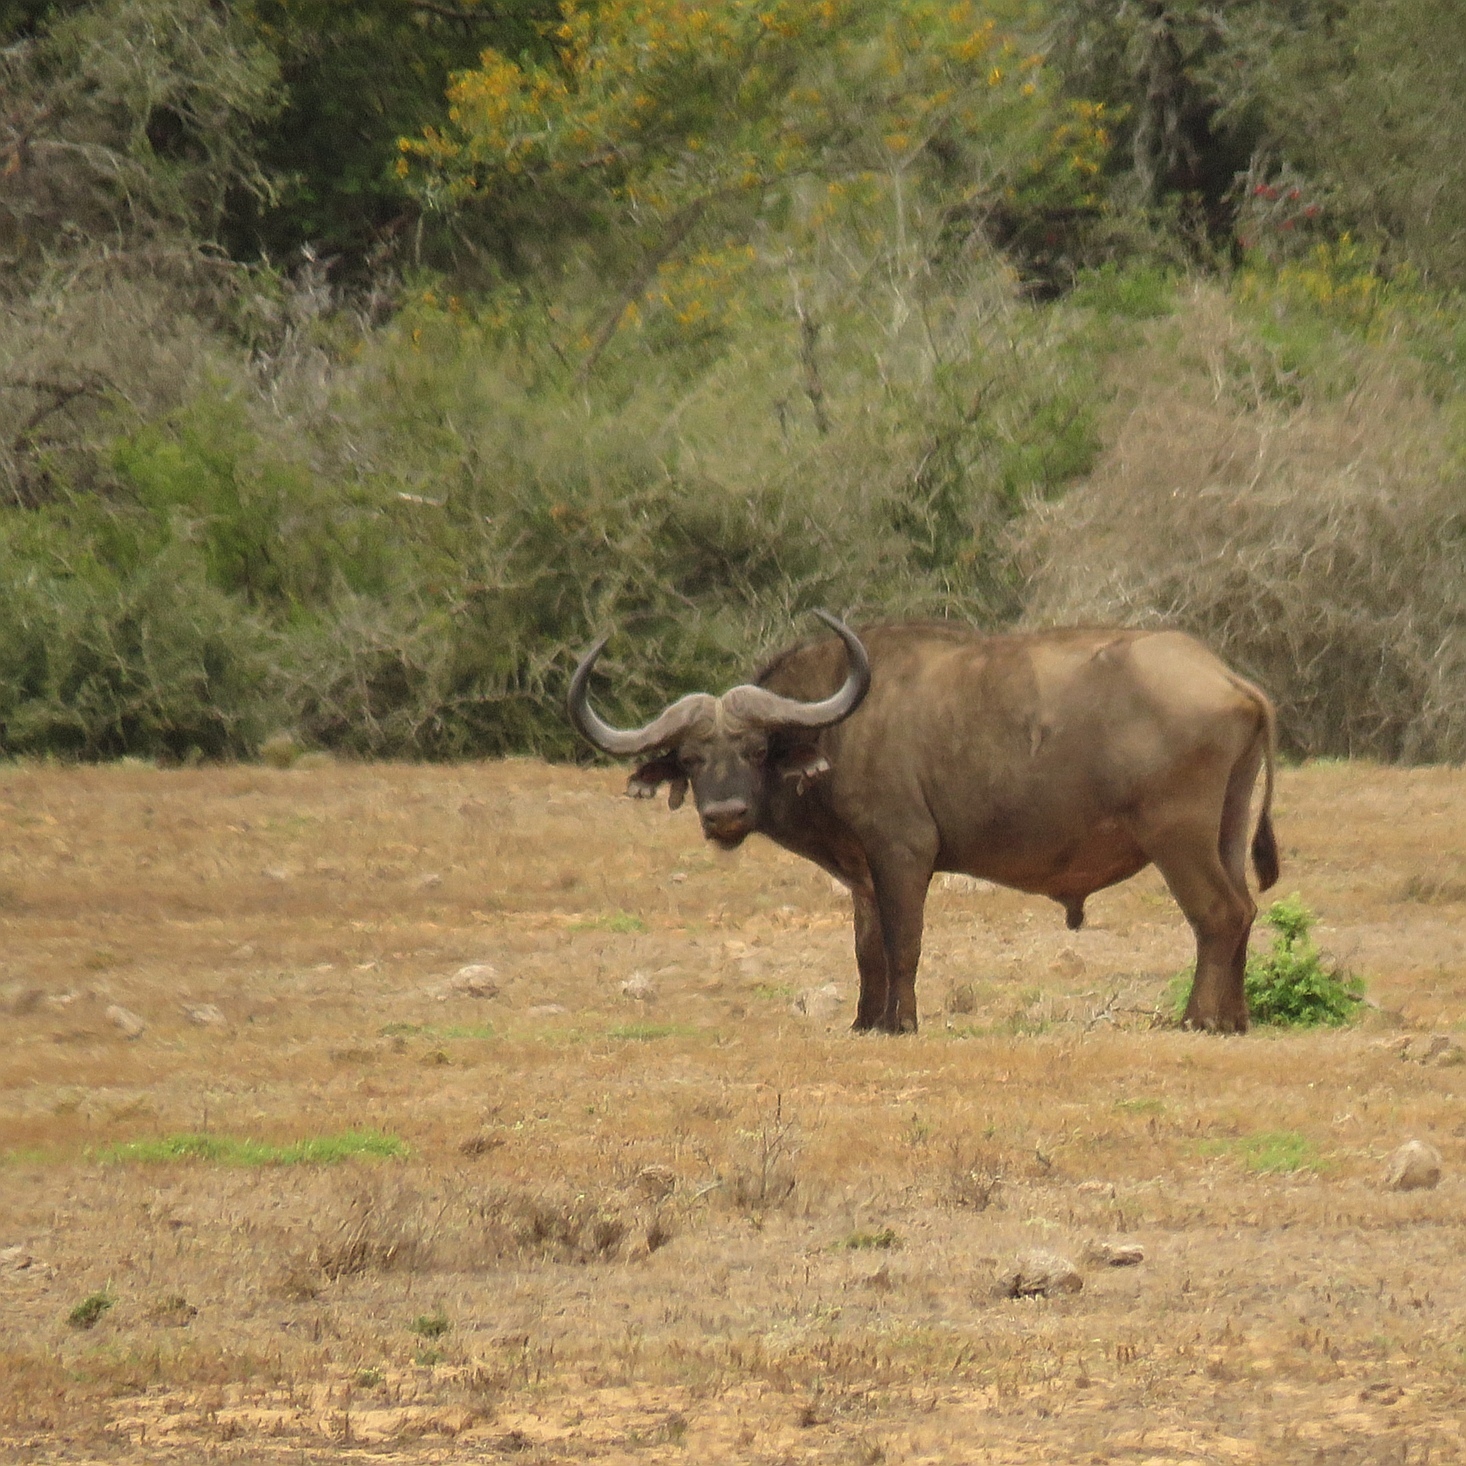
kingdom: Animalia
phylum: Chordata
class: Mammalia
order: Artiodactyla
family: Bovidae
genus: Syncerus
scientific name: Syncerus caffer
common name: African buffalo
